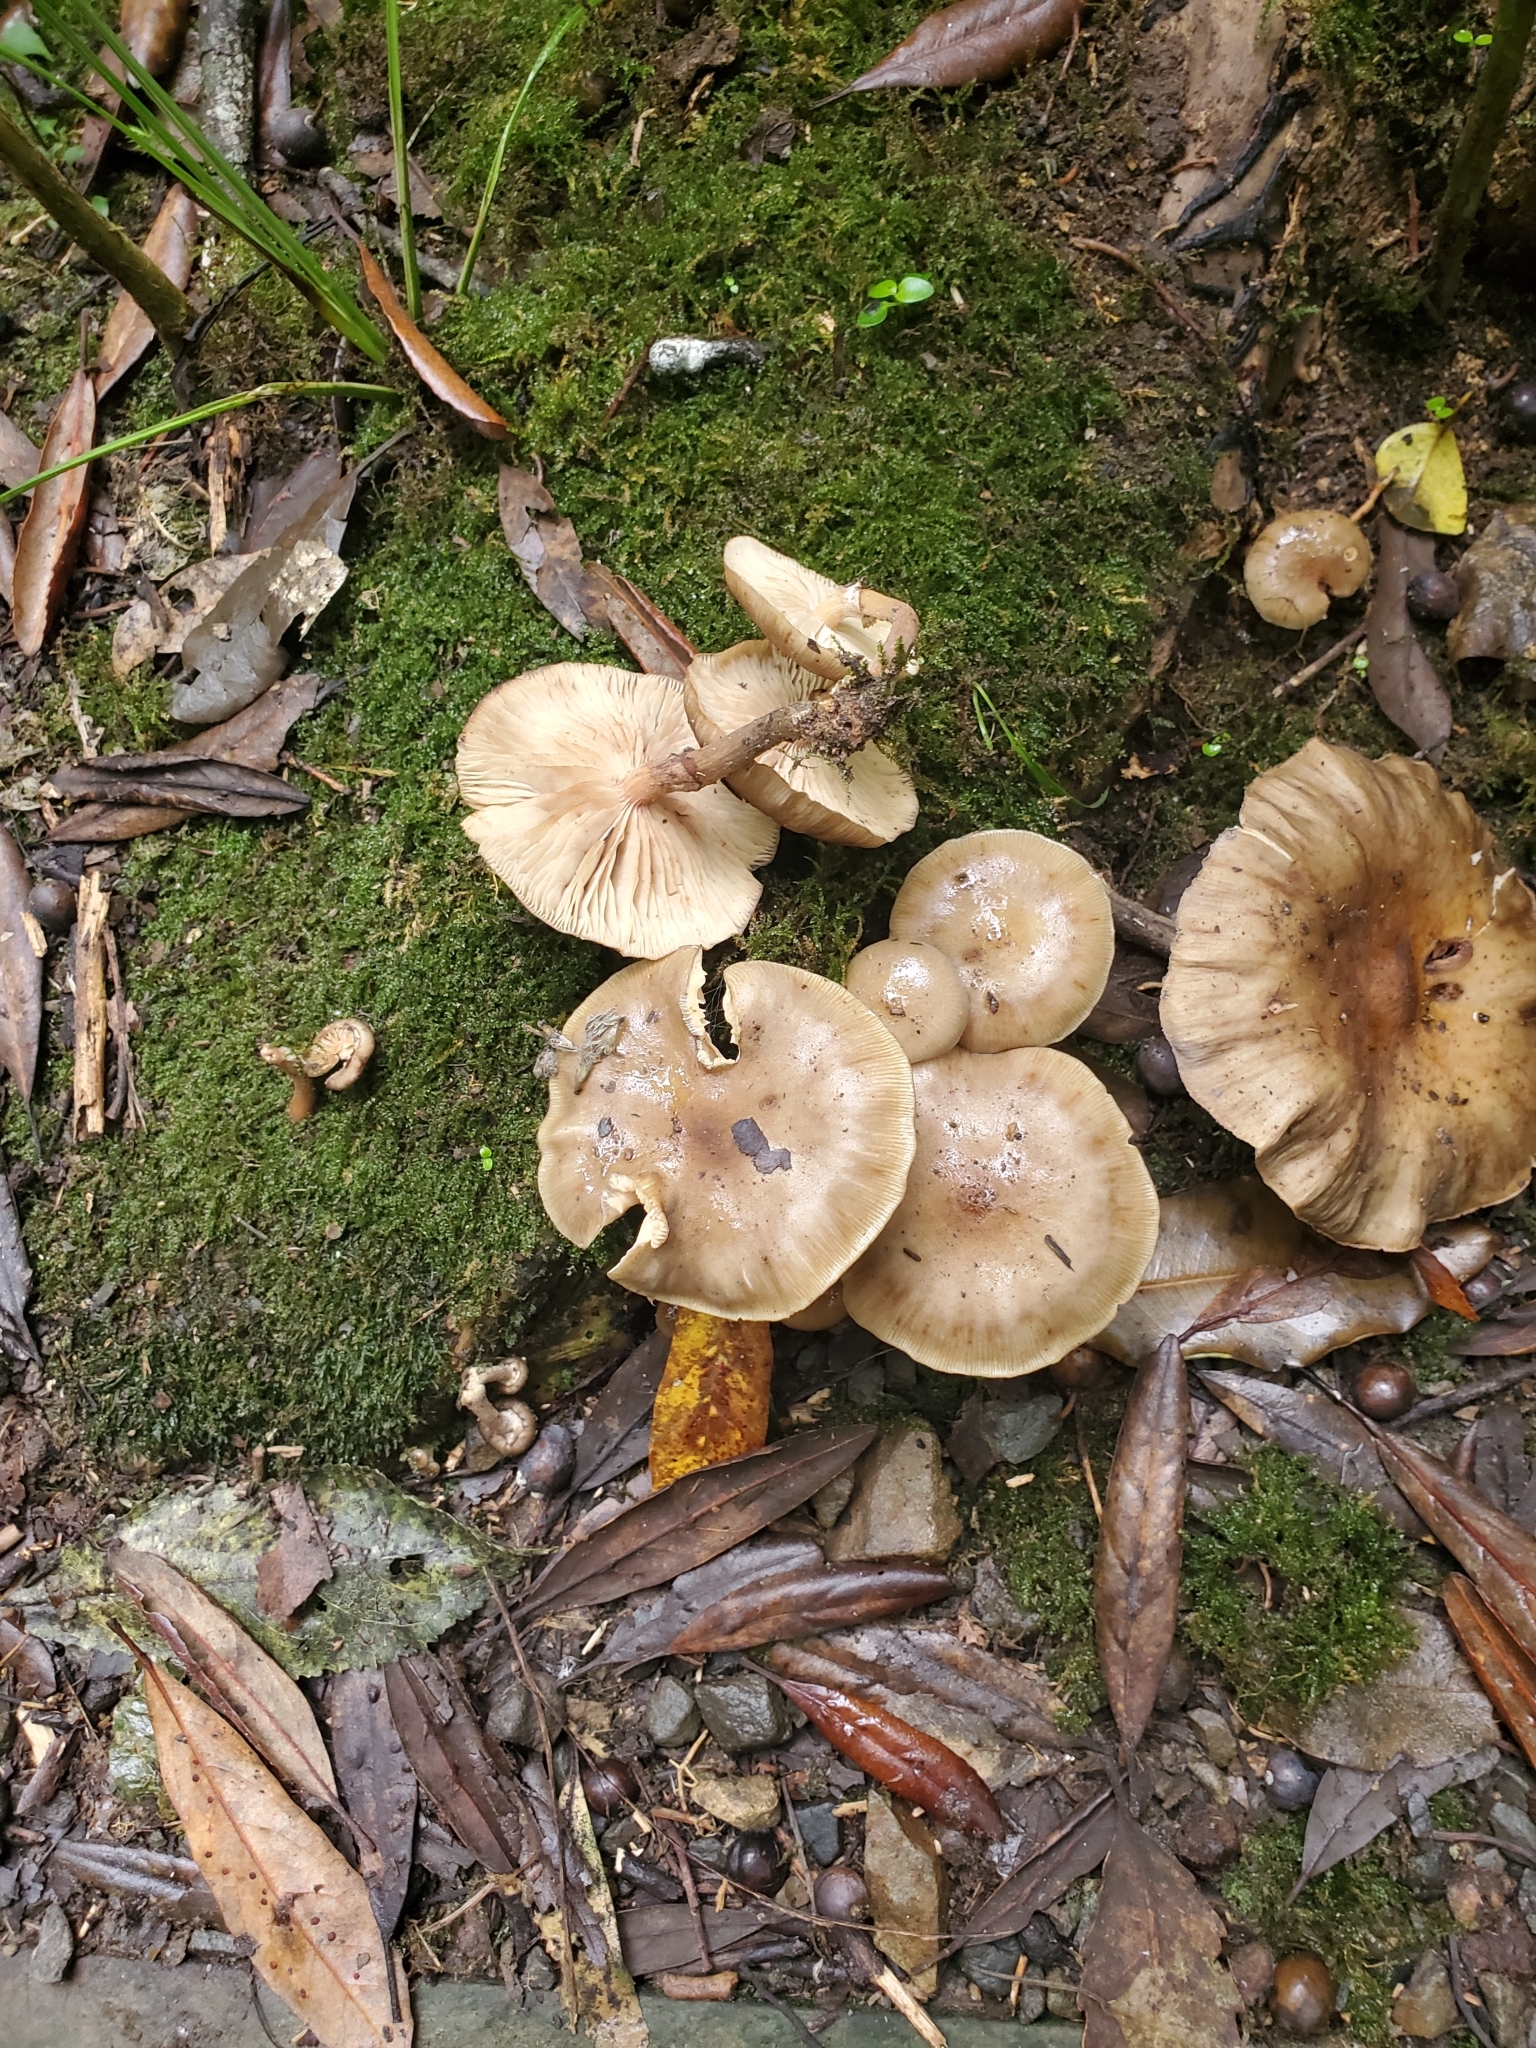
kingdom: Fungi
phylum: Basidiomycota
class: Agaricomycetes
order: Agaricales
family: Physalacriaceae
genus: Armillaria
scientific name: Armillaria novae-zelandiae
